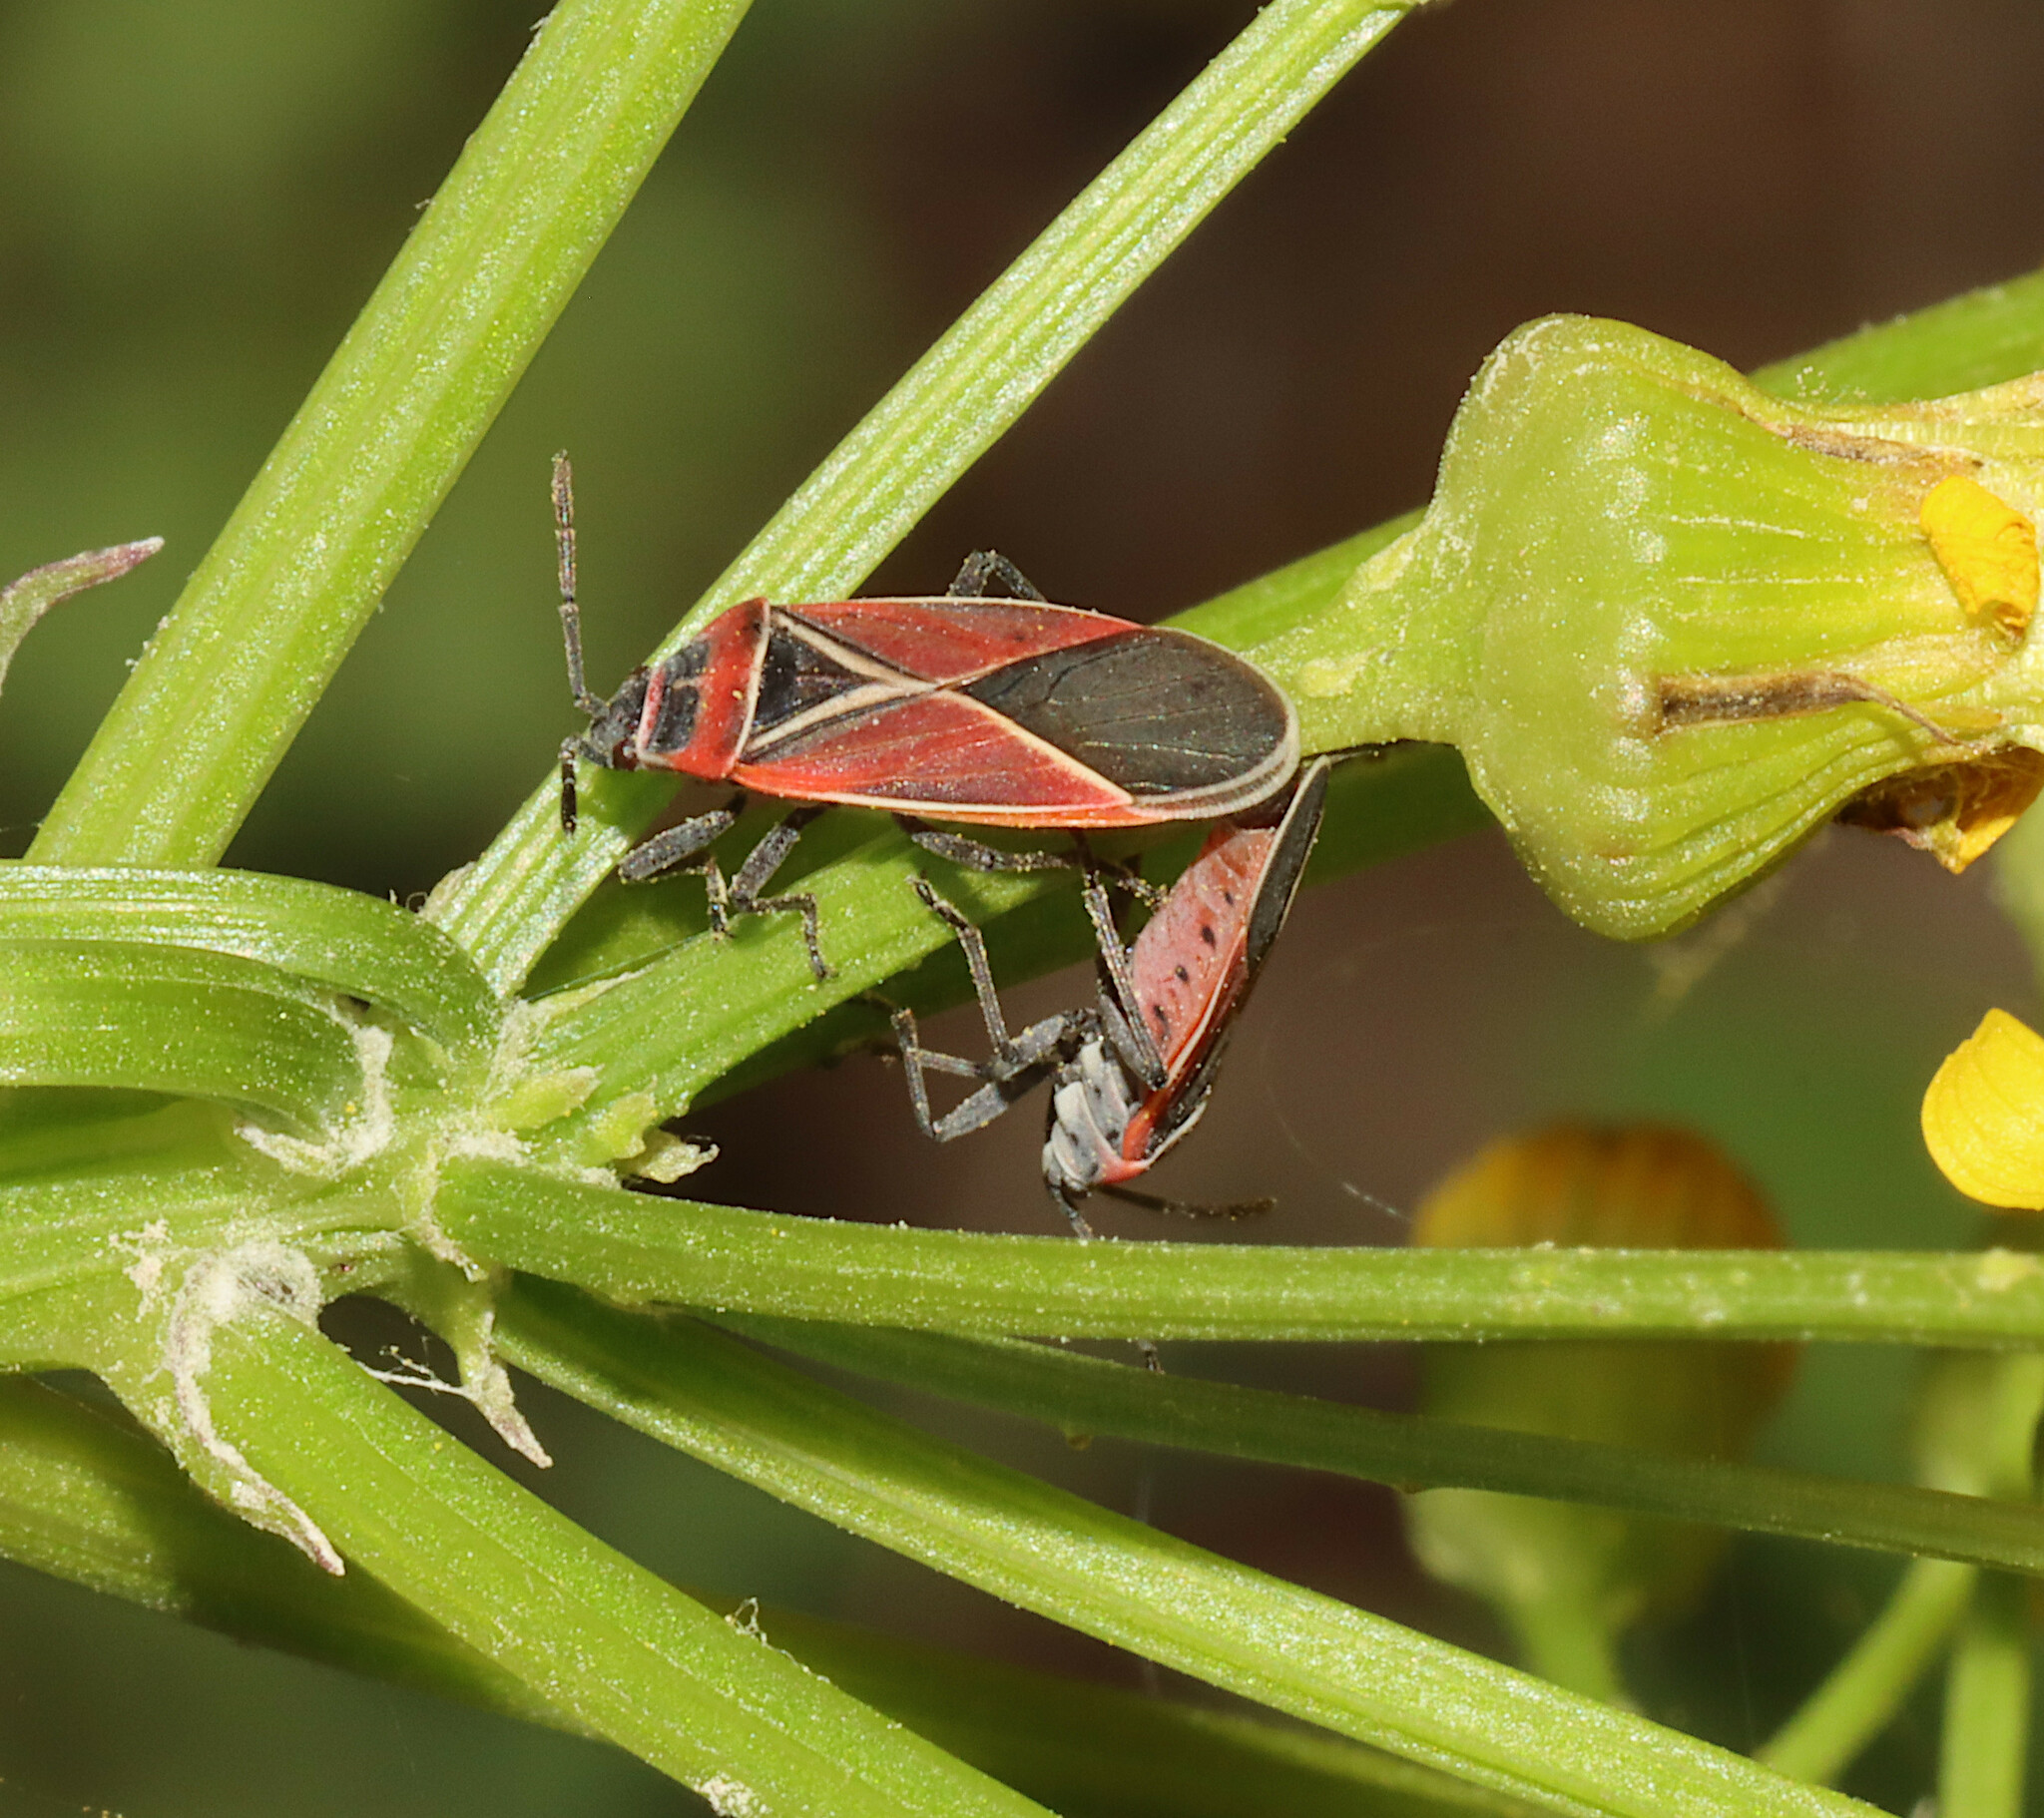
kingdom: Animalia
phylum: Arthropoda
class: Insecta
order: Hemiptera
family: Lygaeidae
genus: Neacoryphus
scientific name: Neacoryphus bicrucis
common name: Lygaeid bug
